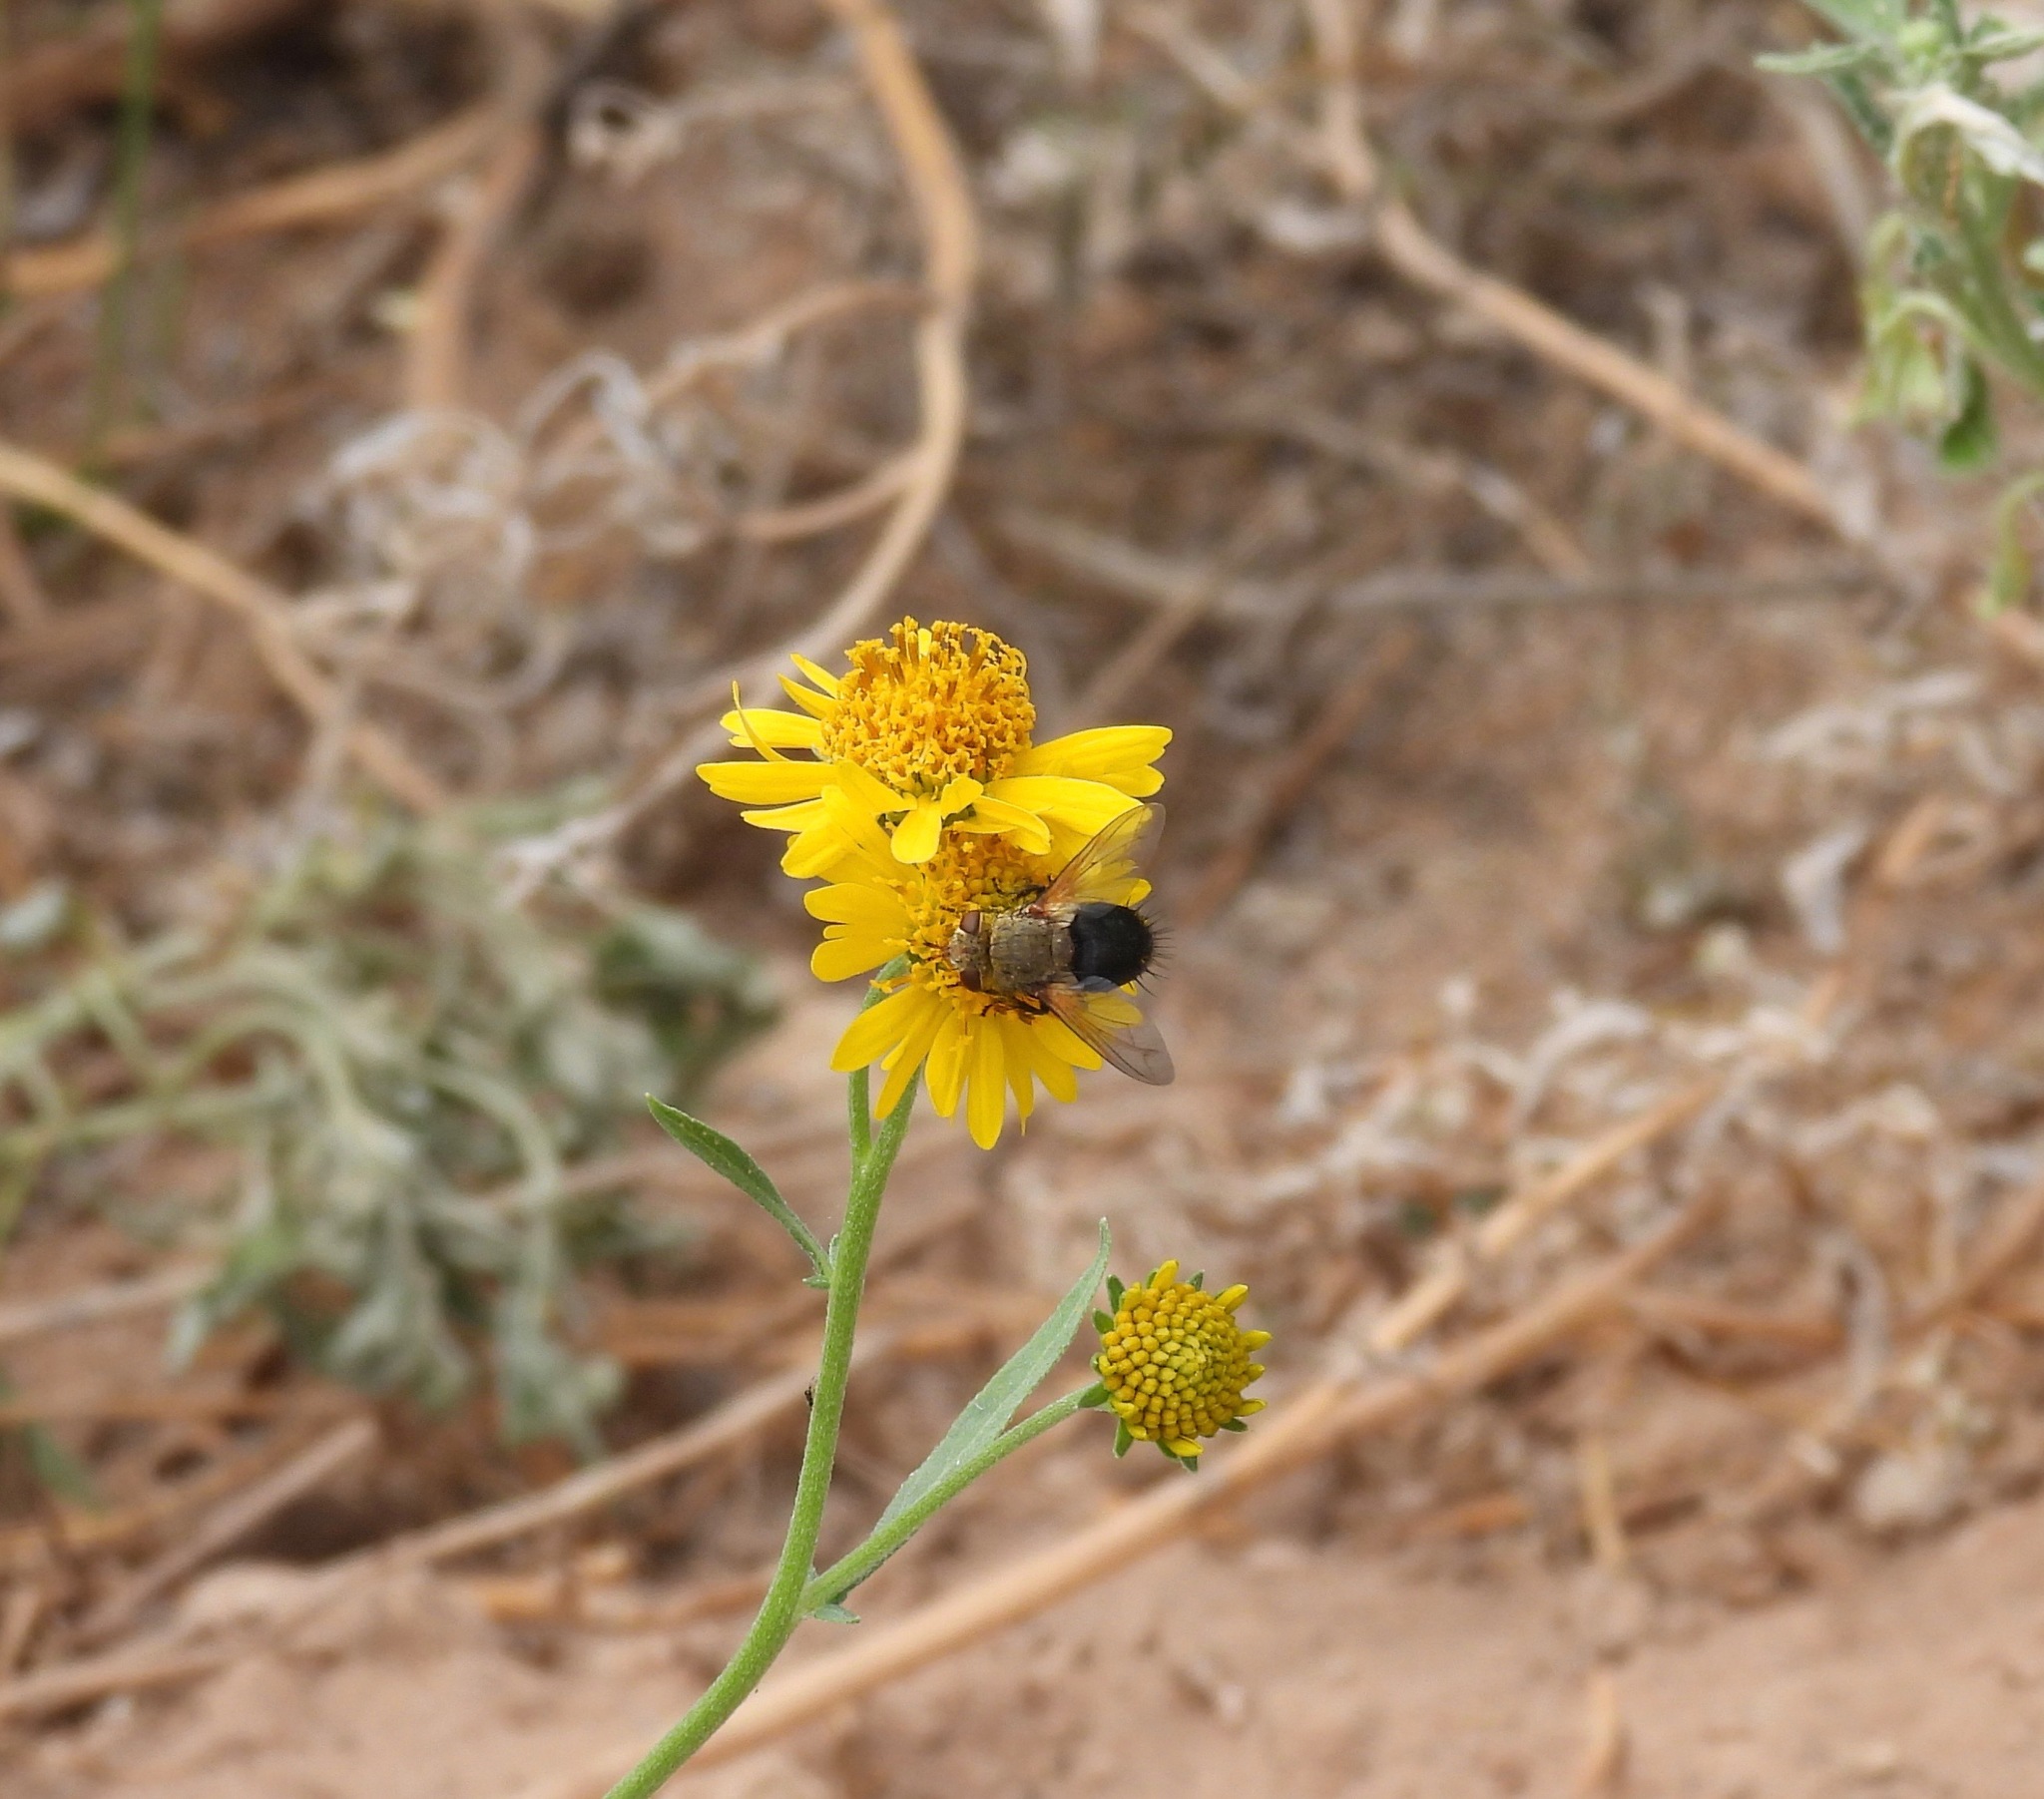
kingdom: Animalia
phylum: Arthropoda
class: Insecta
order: Diptera
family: Tachinidae
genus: Archytas
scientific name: Archytas
